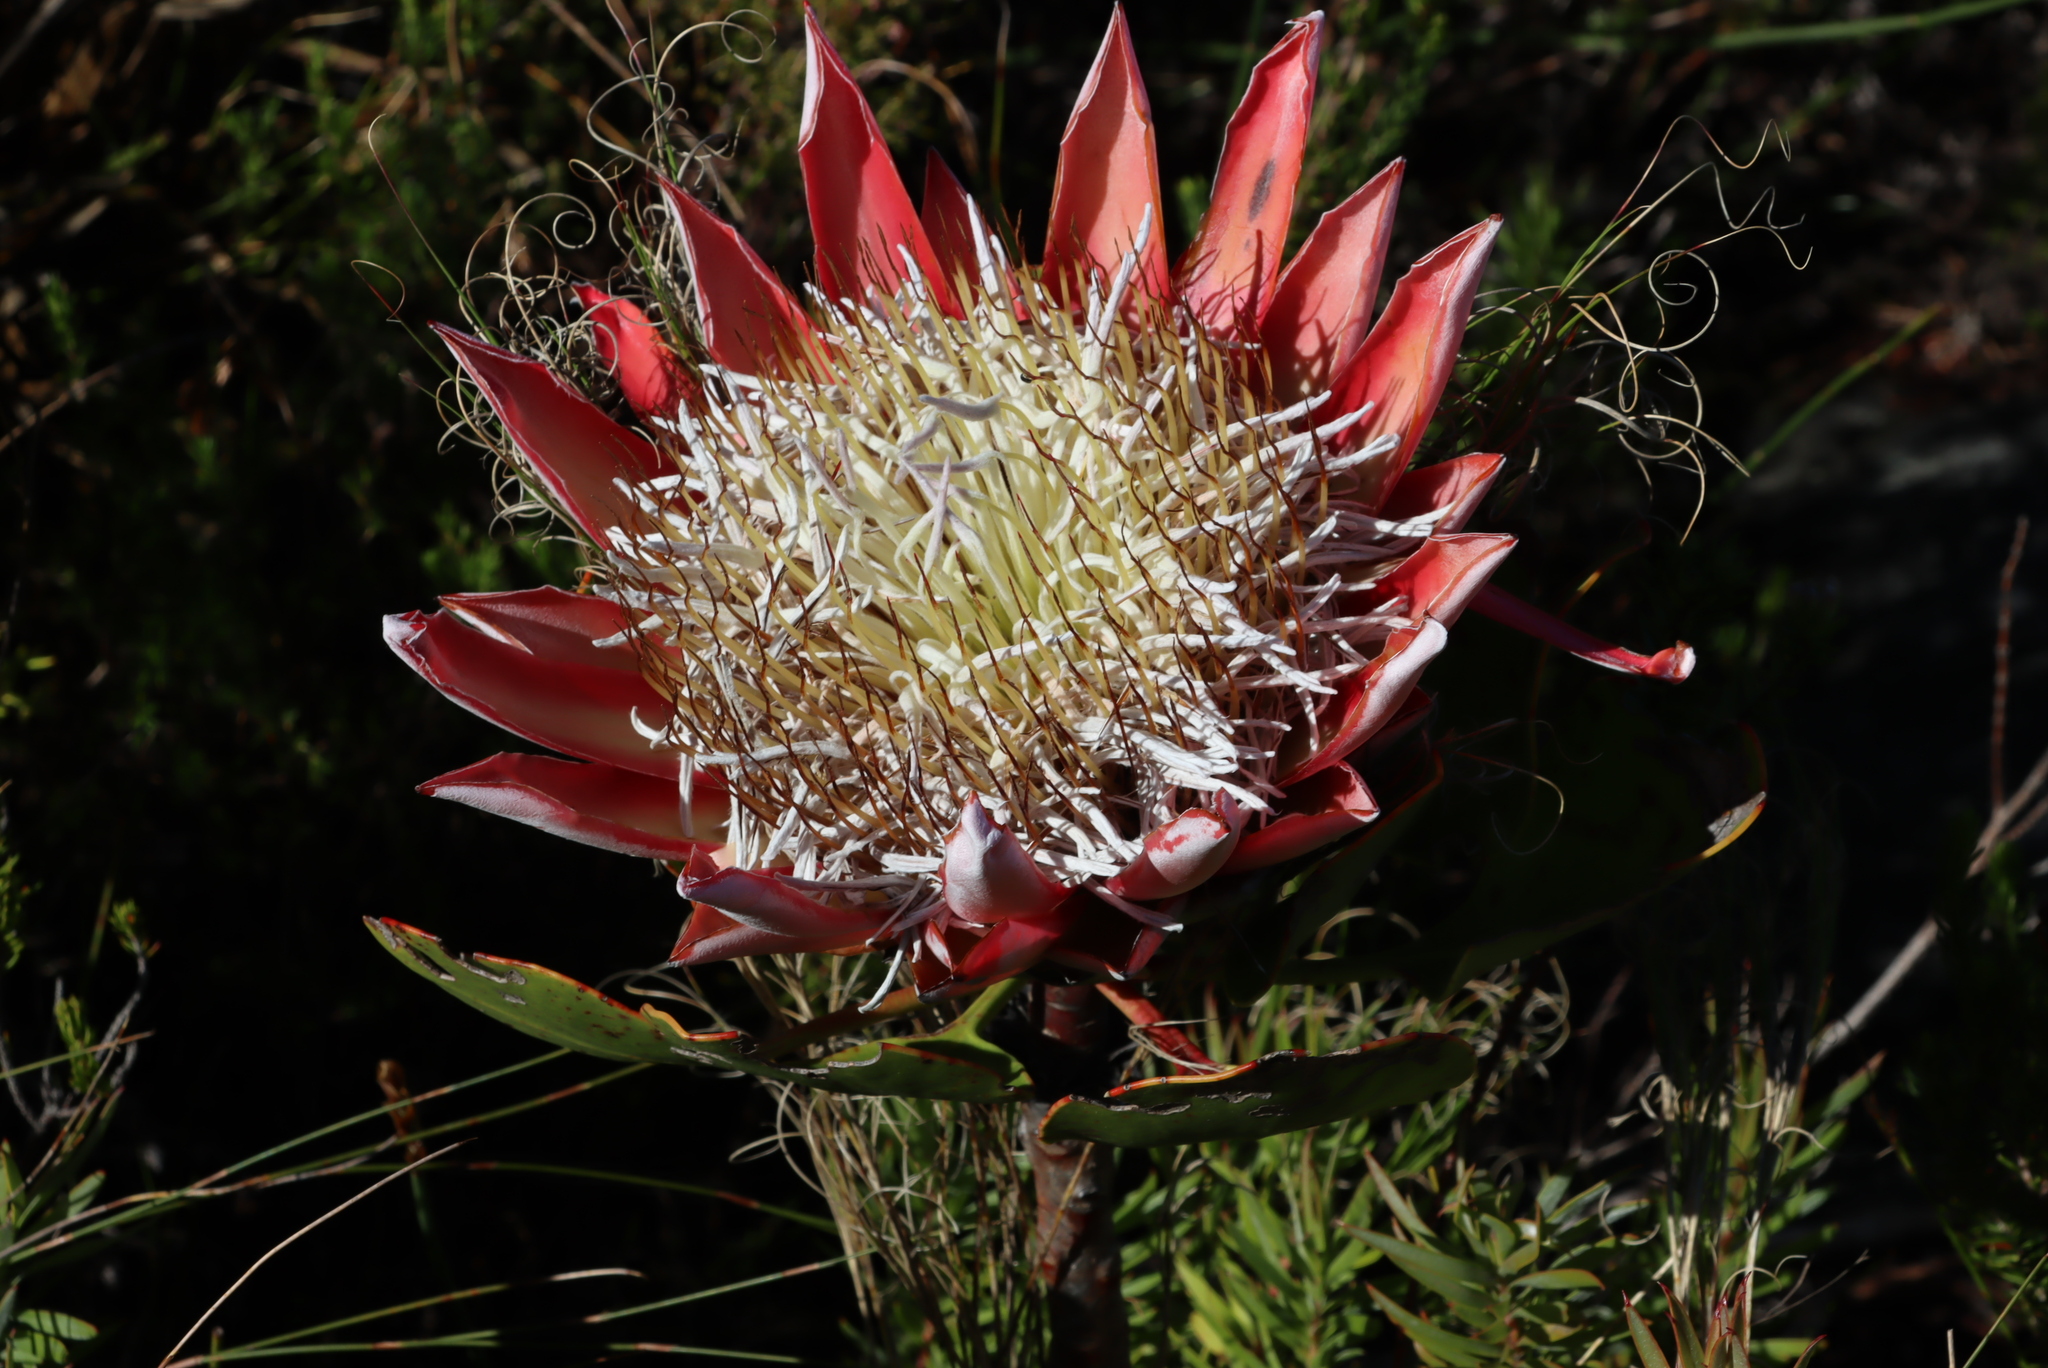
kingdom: Plantae
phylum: Tracheophyta
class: Magnoliopsida
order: Proteales
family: Proteaceae
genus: Protea
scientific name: Protea cynaroides
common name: King protea
